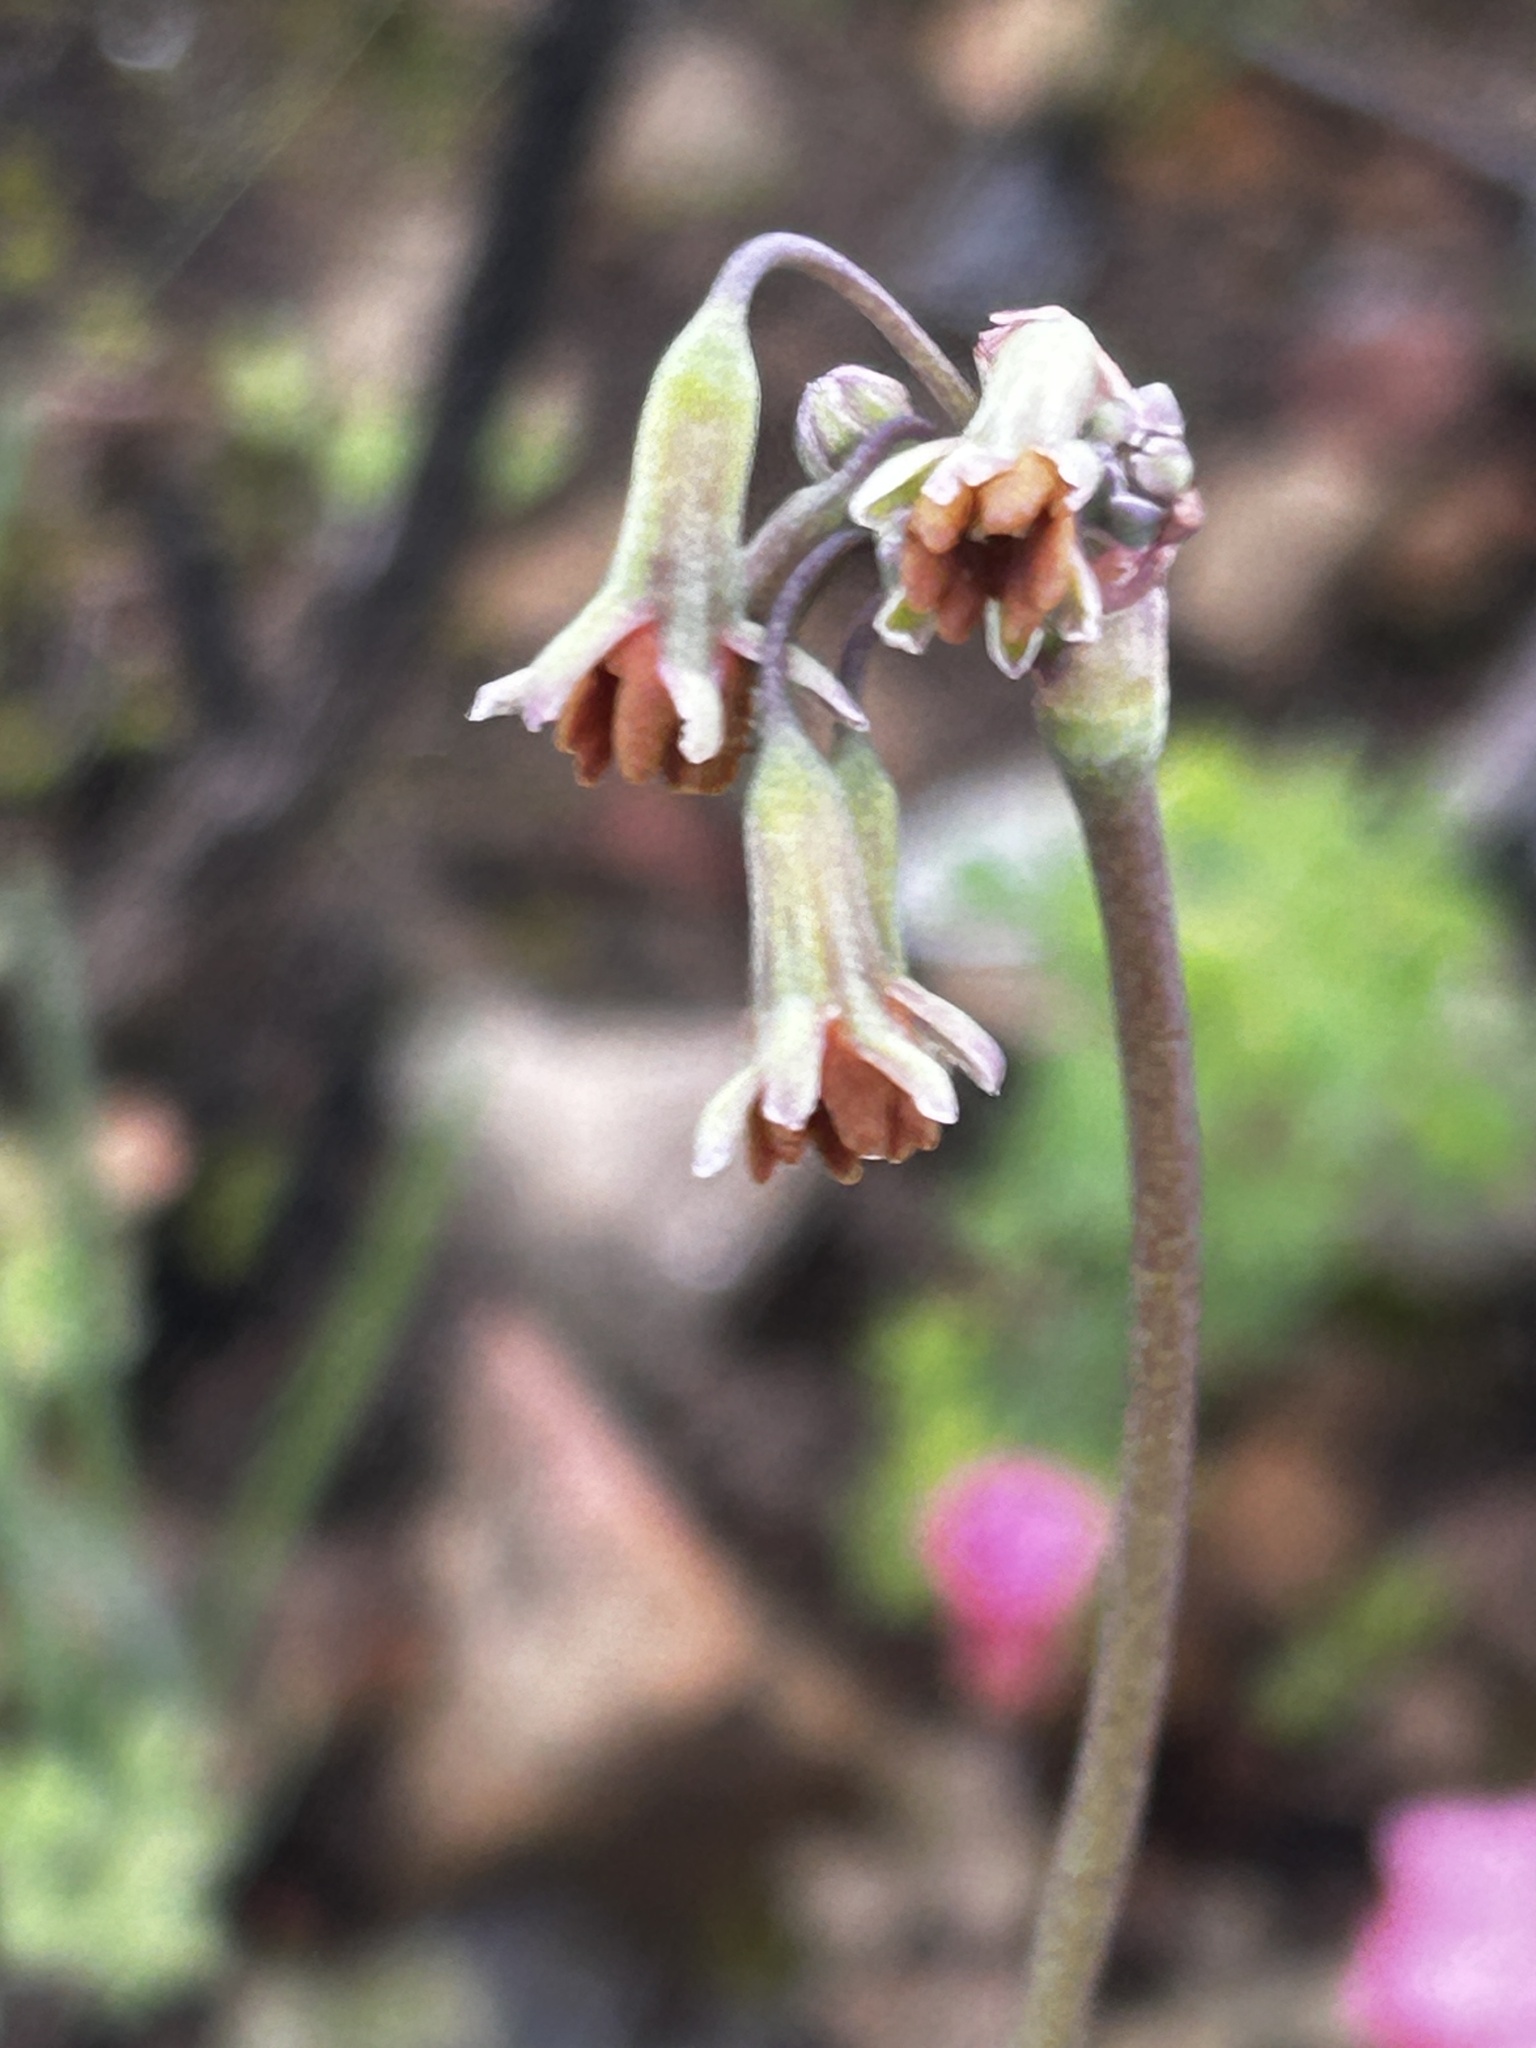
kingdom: Plantae
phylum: Tracheophyta
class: Liliopsida
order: Asparagales
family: Amaryllidaceae
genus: Tulbaghia
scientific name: Tulbaghia capensis
